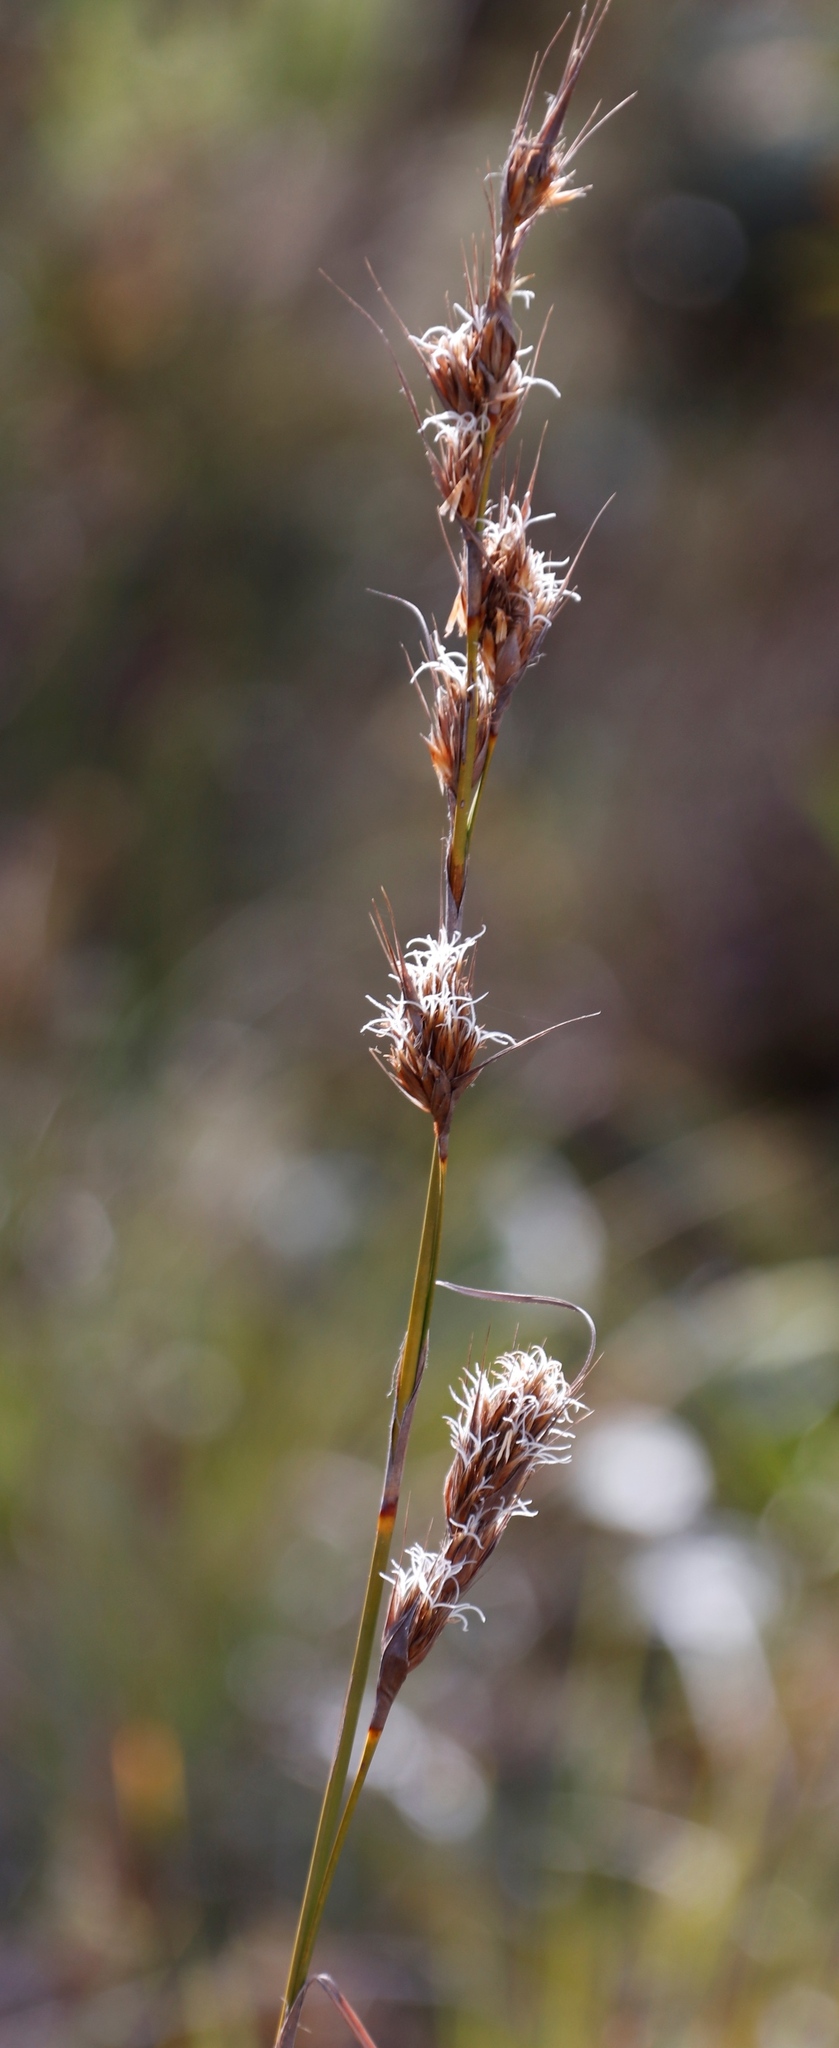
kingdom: Plantae
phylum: Tracheophyta
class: Liliopsida
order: Poales
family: Cyperaceae
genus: Tetraria
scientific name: Tetraria ustulata
